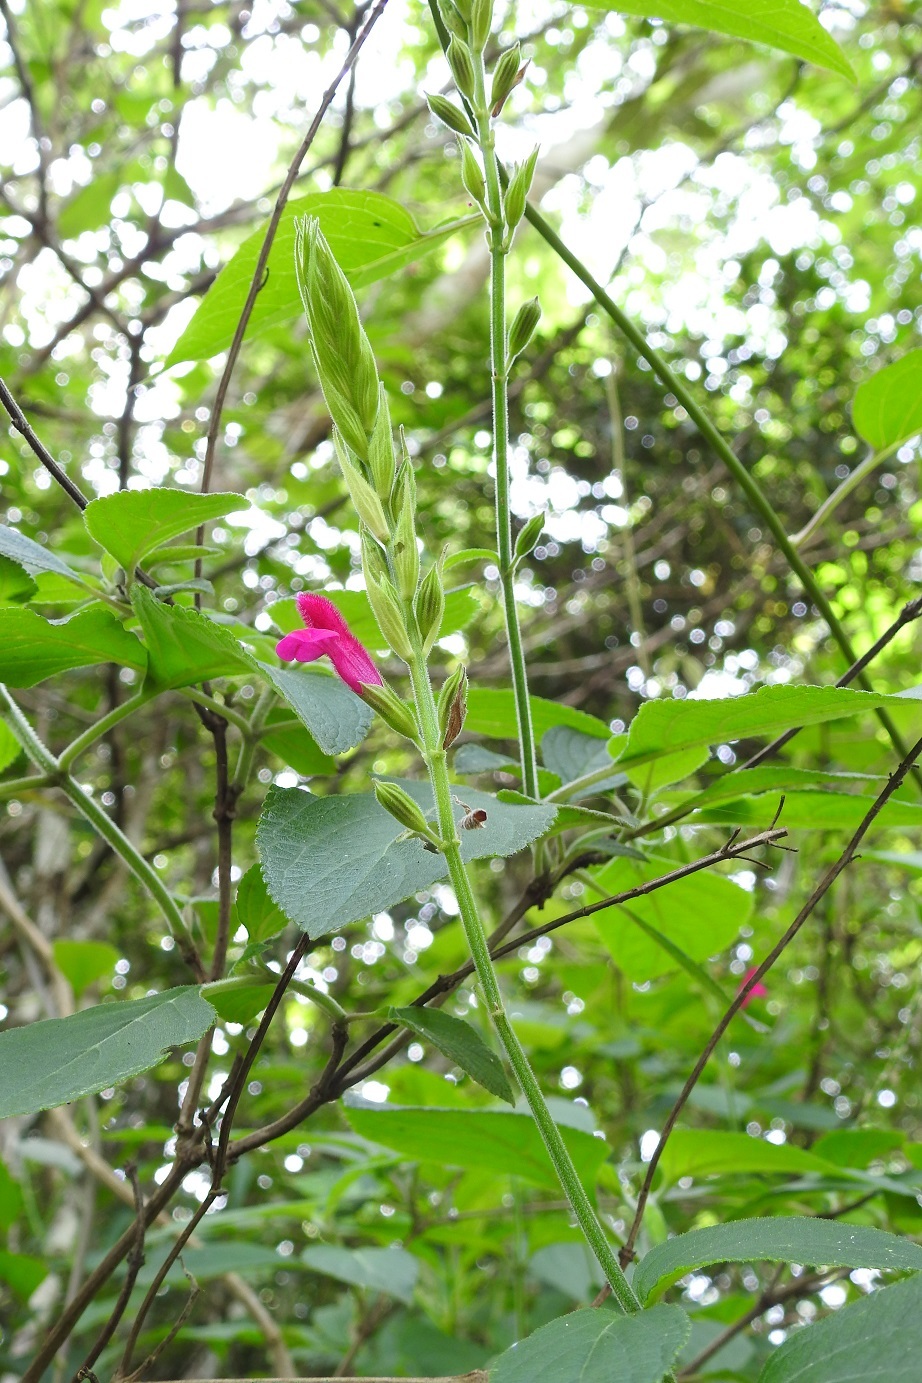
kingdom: Plantae
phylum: Tracheophyta
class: Magnoliopsida
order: Lamiales
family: Lamiaceae
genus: Salvia
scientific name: Salvia chiapensis
